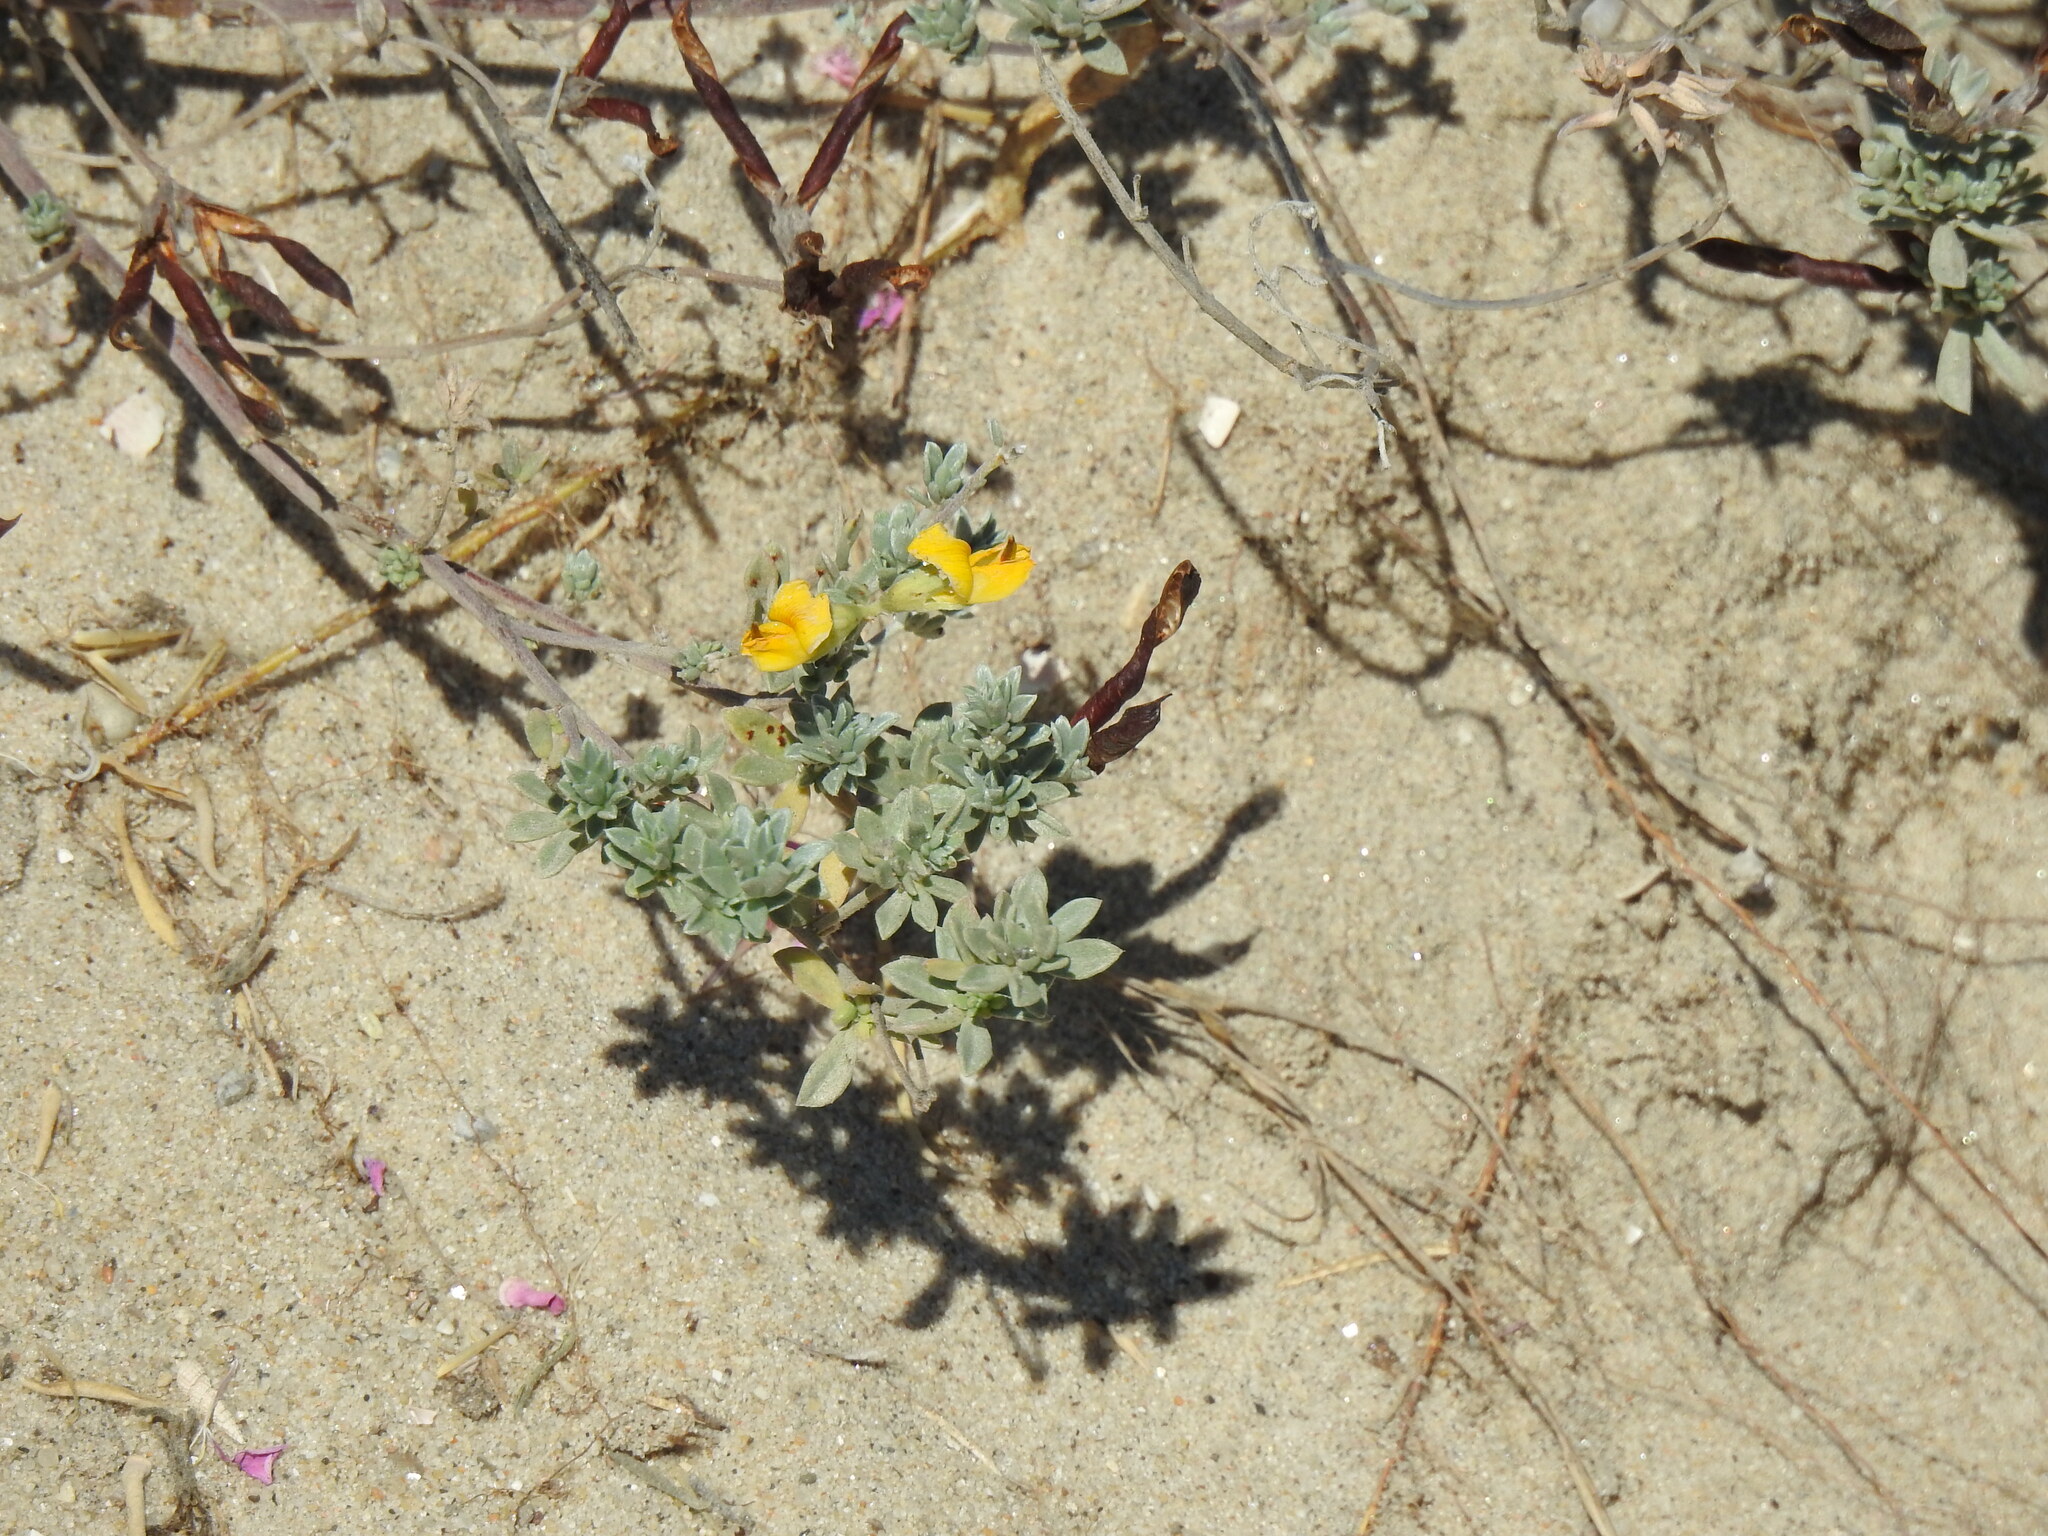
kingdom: Plantae
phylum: Tracheophyta
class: Magnoliopsida
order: Fabales
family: Fabaceae
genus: Lotus
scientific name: Lotus creticus
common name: Cretan bird's-foot trefoil
